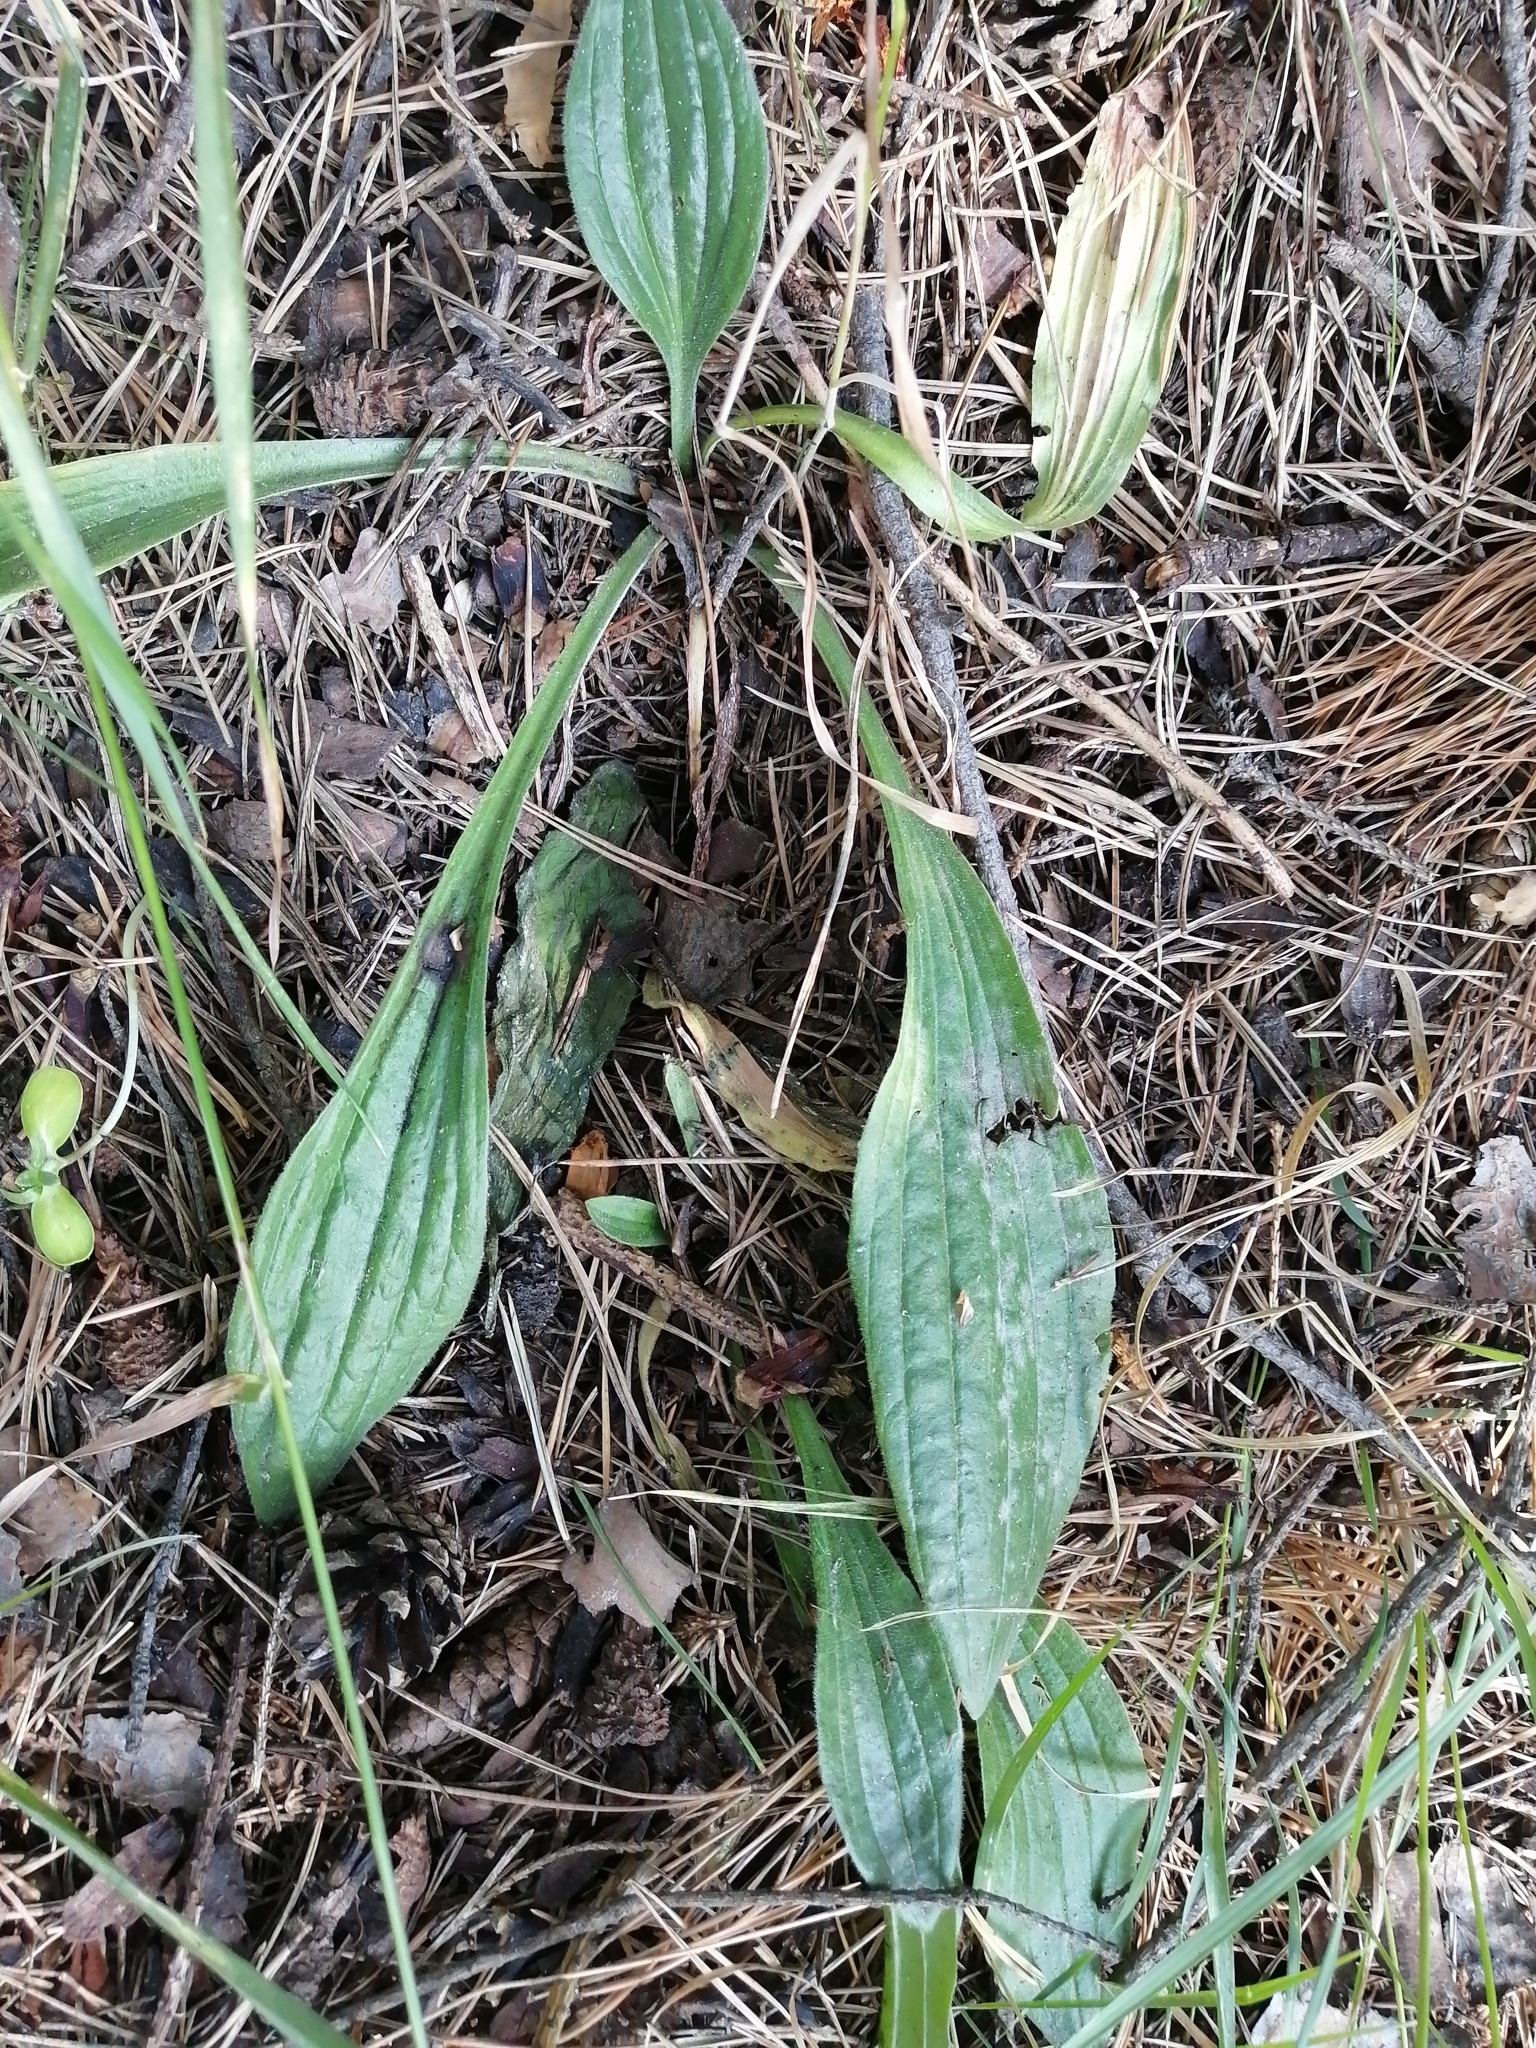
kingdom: Plantae
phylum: Tracheophyta
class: Magnoliopsida
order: Lamiales
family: Plantaginaceae
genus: Plantago
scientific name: Plantago lanceolata
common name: Ribwort plantain
